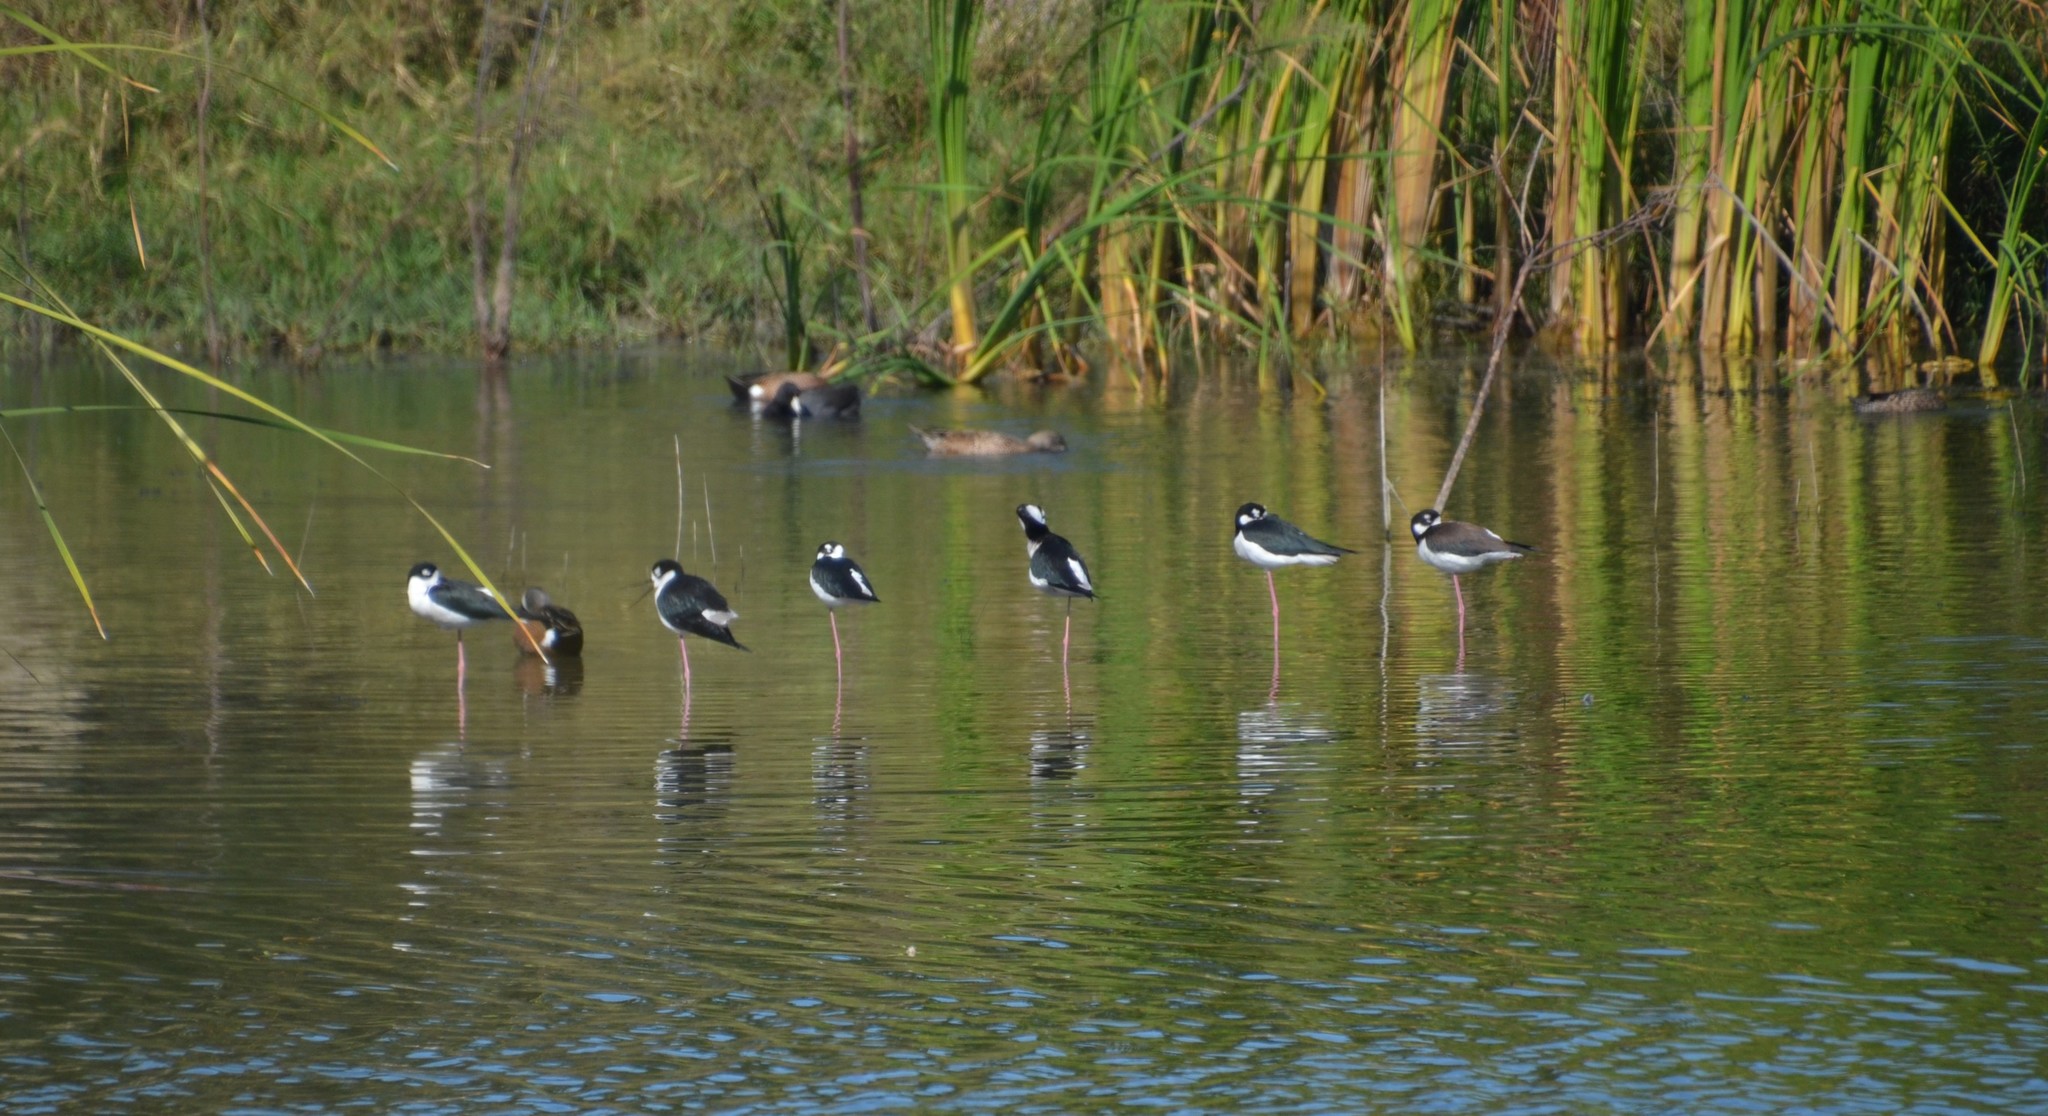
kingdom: Animalia
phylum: Chordata
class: Aves
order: Charadriiformes
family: Recurvirostridae
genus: Himantopus
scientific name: Himantopus mexicanus
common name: Black-necked stilt
